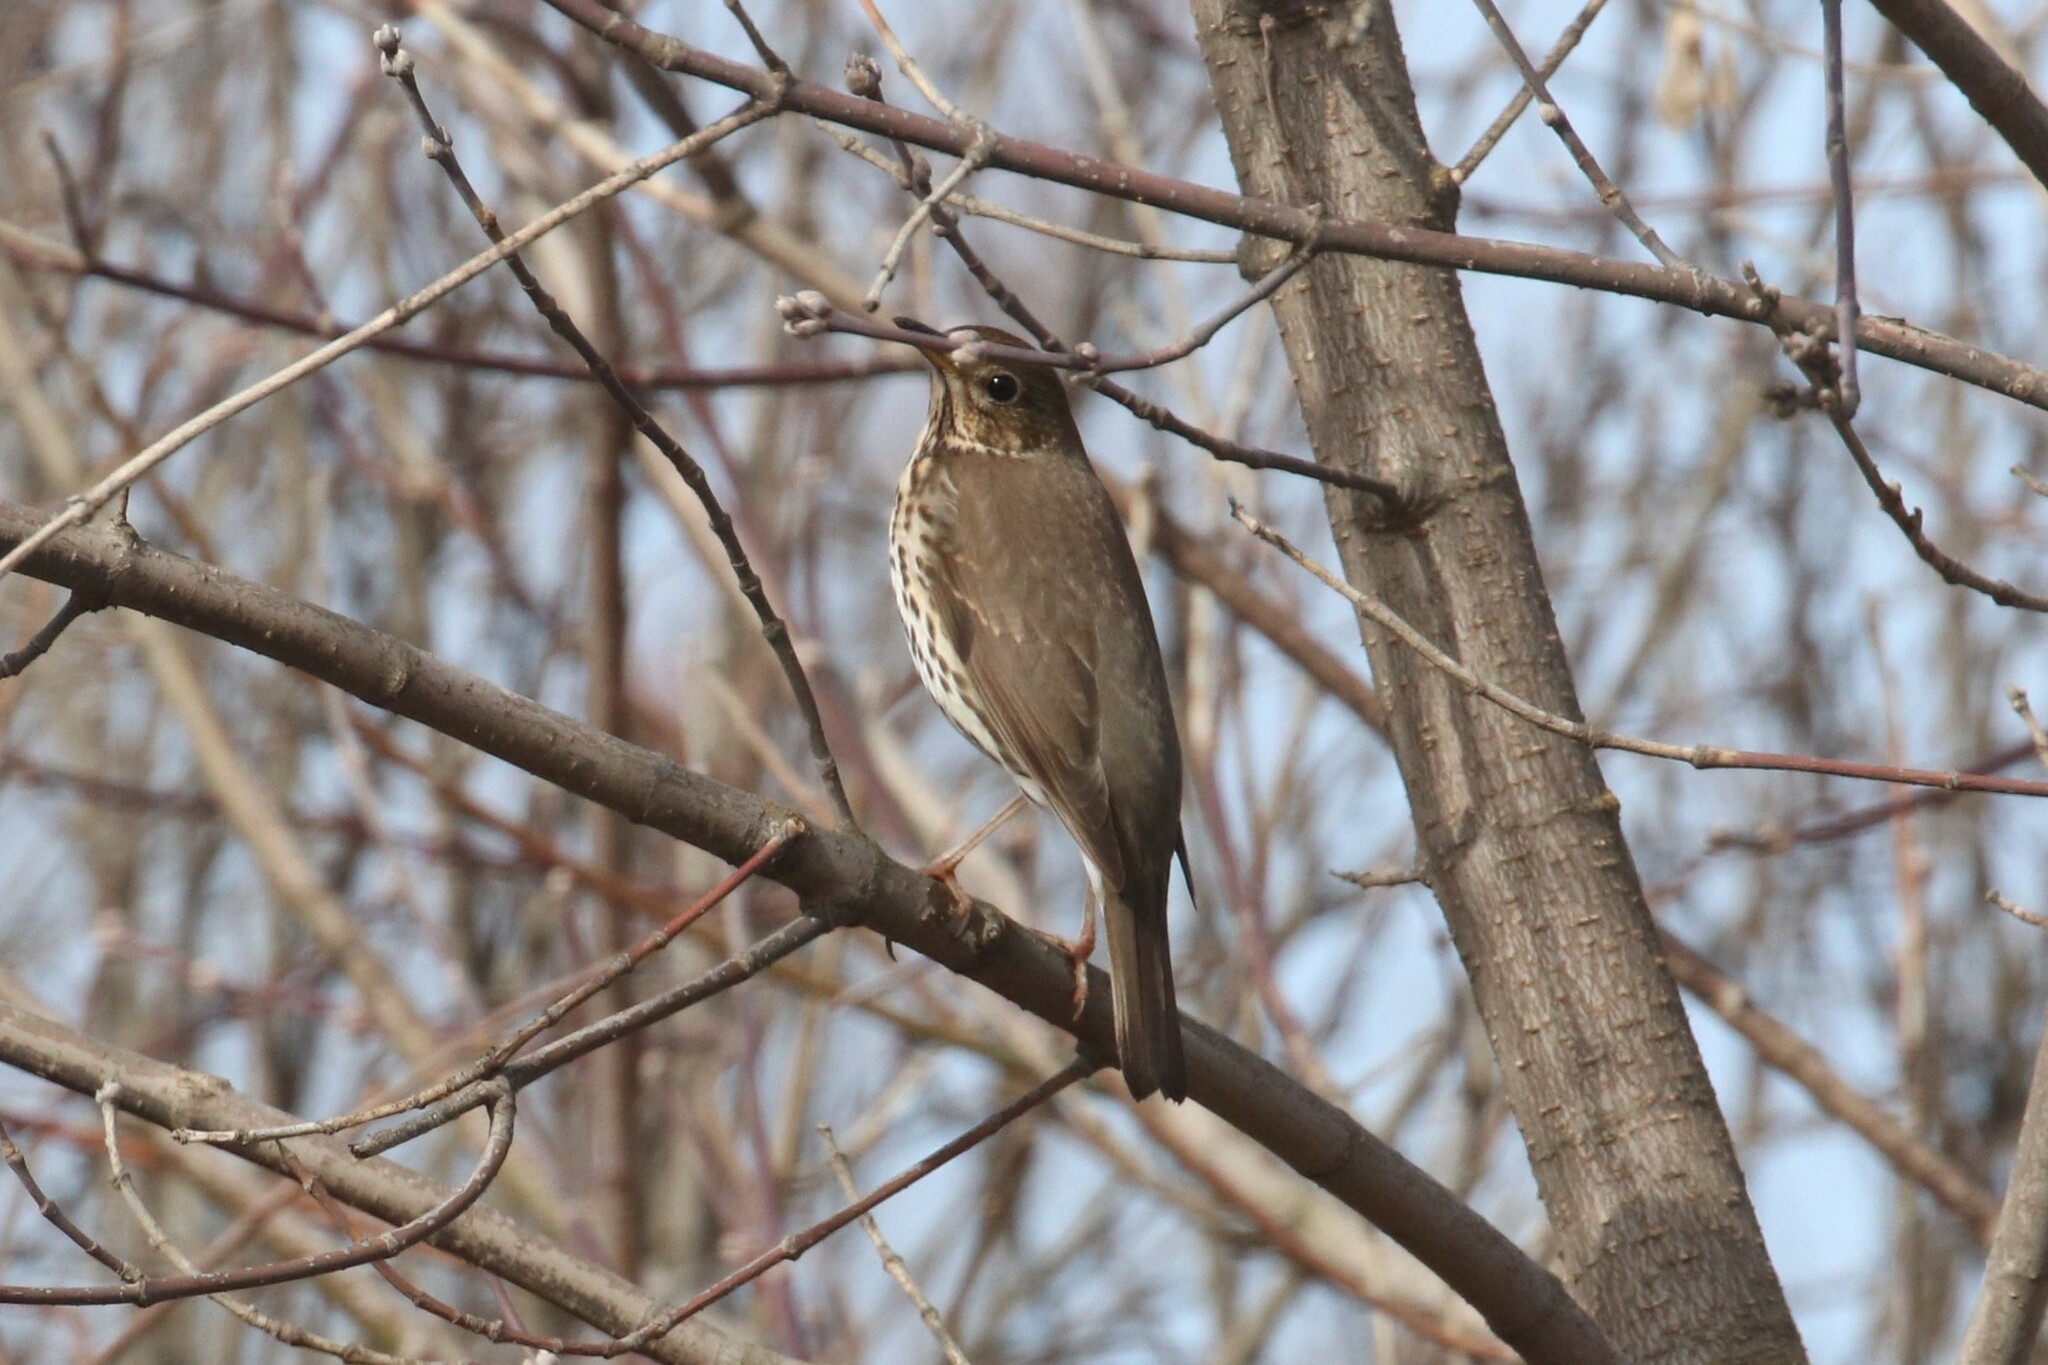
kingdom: Animalia
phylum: Chordata
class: Aves
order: Passeriformes
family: Turdidae
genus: Turdus
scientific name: Turdus philomelos
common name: Song thrush
